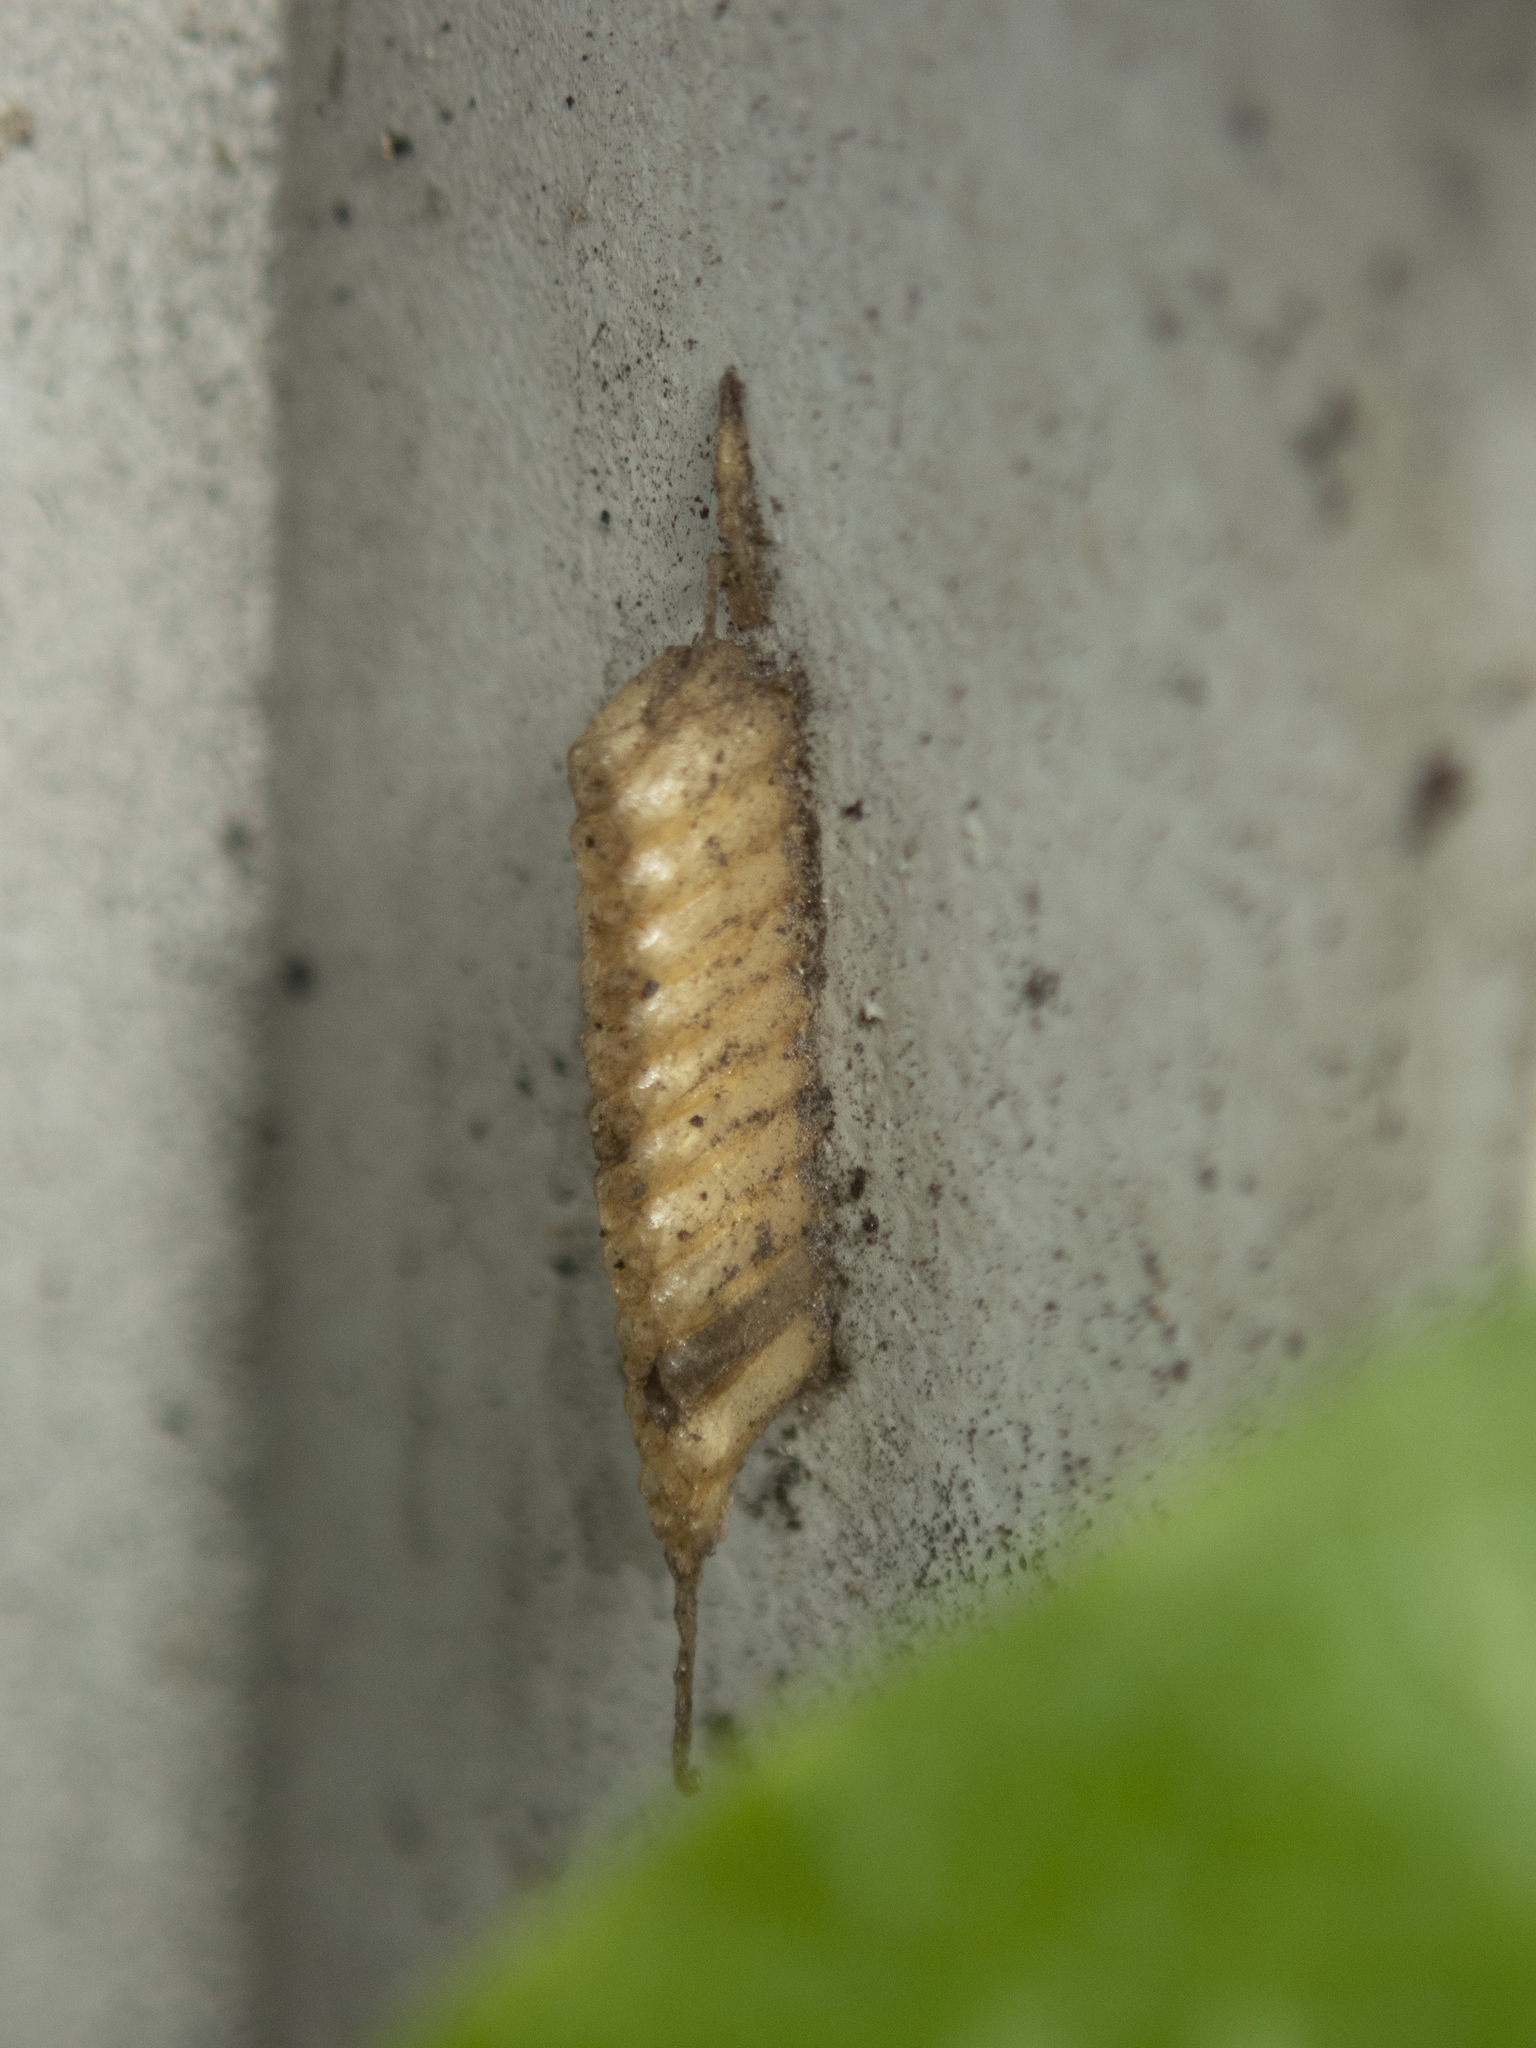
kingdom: Animalia
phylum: Arthropoda
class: Insecta
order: Mantodea
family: Nanomantidae
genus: Tropidomantis
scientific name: Tropidomantis gressitti
